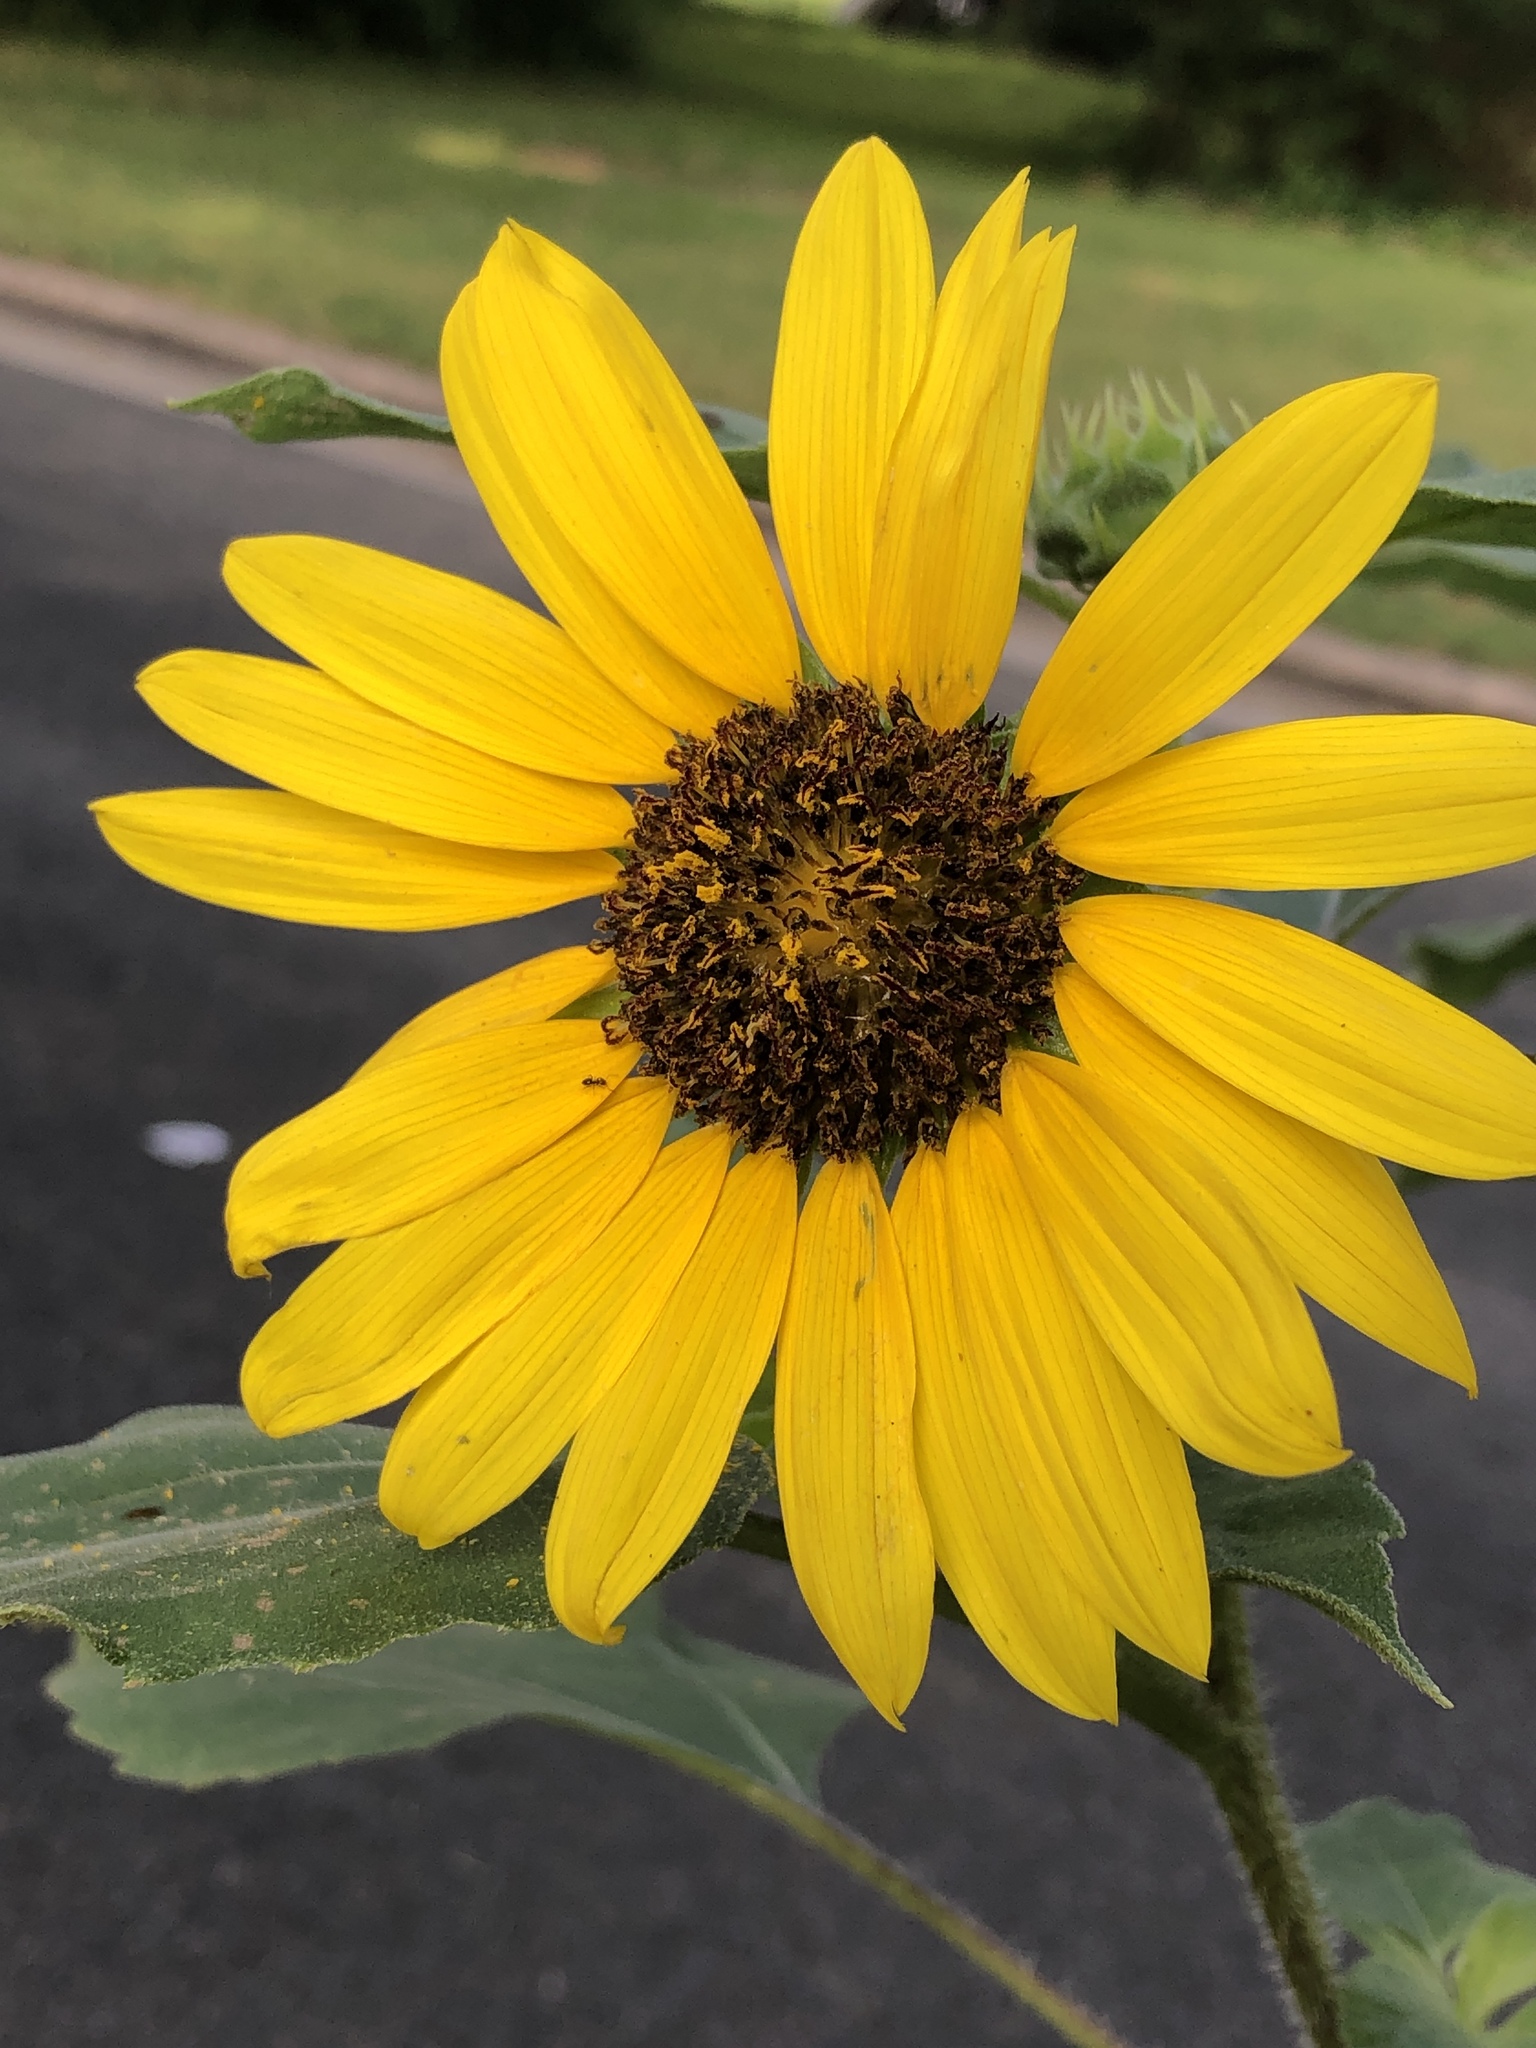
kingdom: Plantae
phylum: Tracheophyta
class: Magnoliopsida
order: Asterales
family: Asteraceae
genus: Helianthus
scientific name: Helianthus annuus
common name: Sunflower
